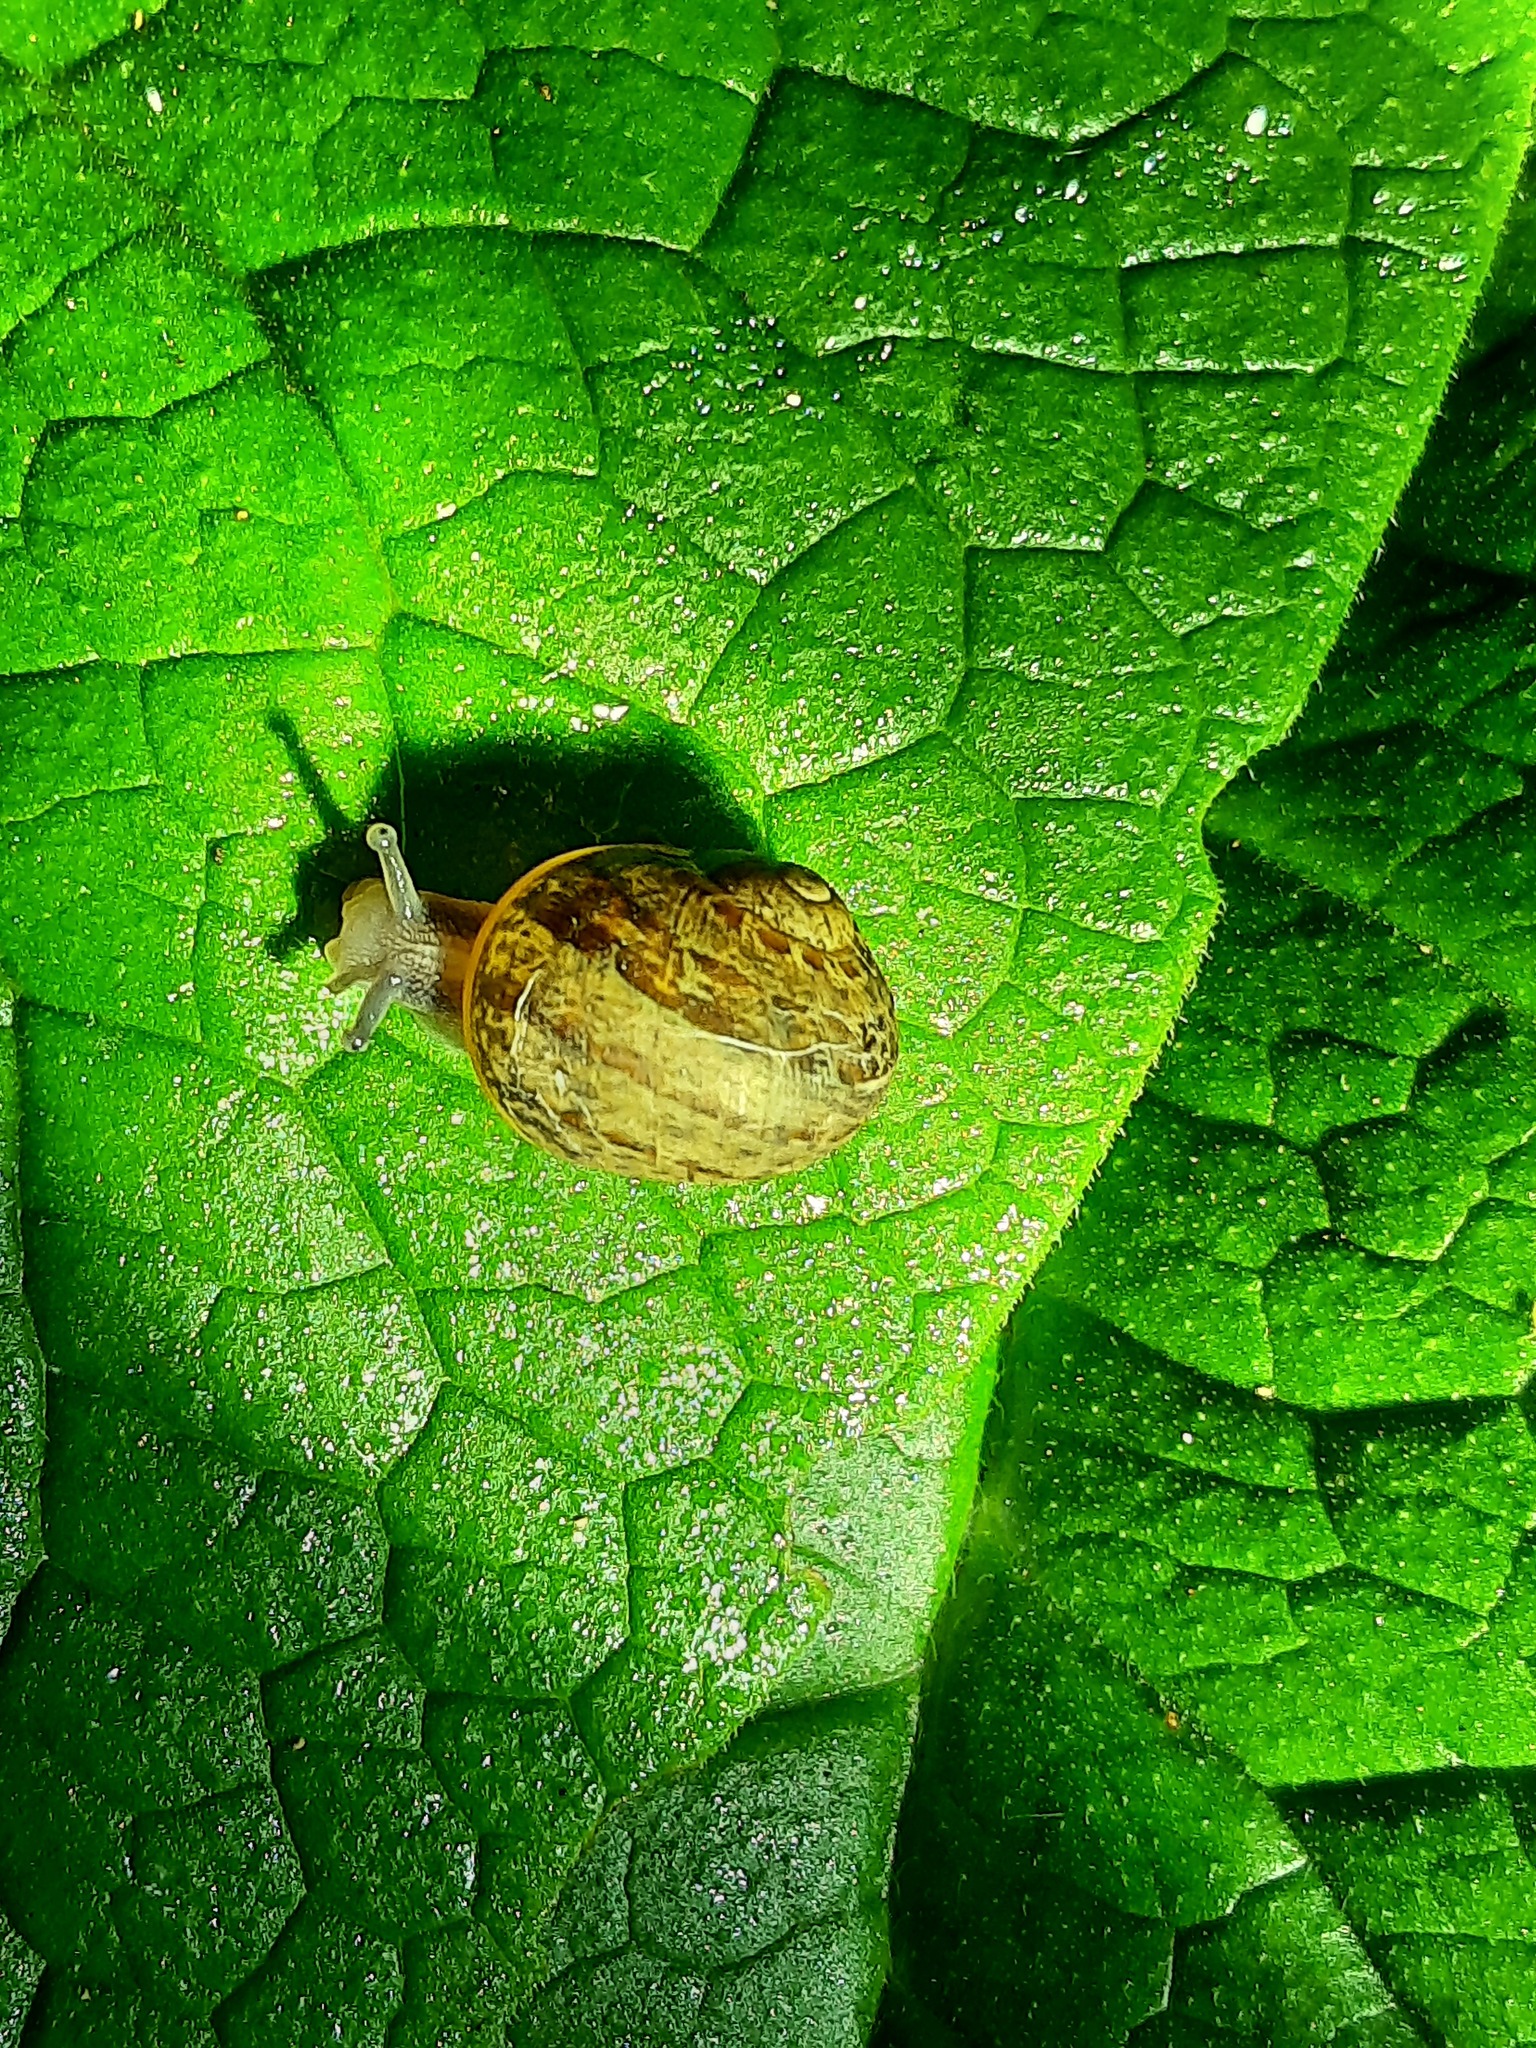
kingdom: Animalia
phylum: Mollusca
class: Gastropoda
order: Stylommatophora
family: Helicidae
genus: Cornu
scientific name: Cornu aspersum
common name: Brown garden snail
